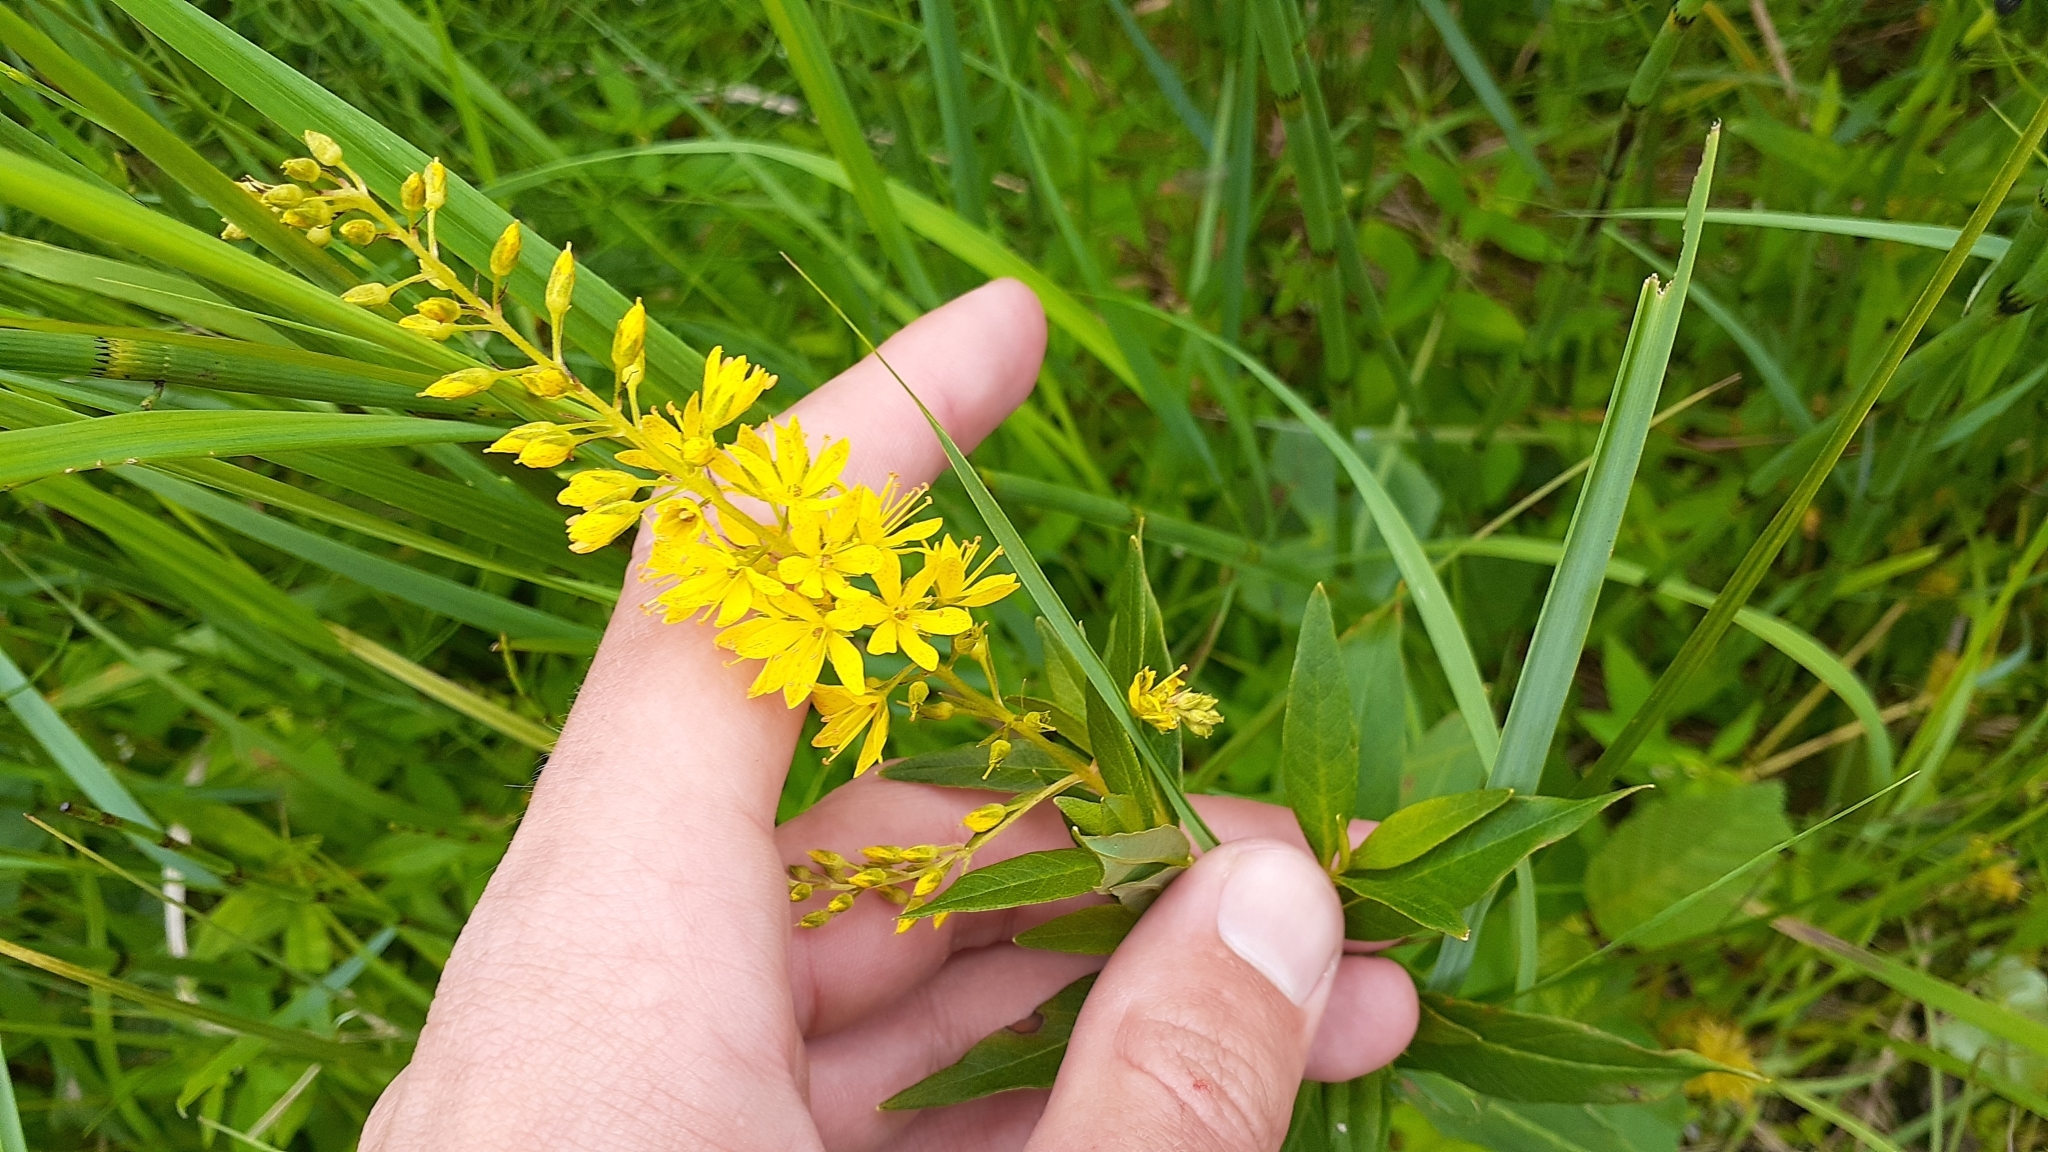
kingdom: Plantae
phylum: Tracheophyta
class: Magnoliopsida
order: Ericales
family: Primulaceae
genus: Lysimachia
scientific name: Lysimachia terrestris
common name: Lake loosestrife
